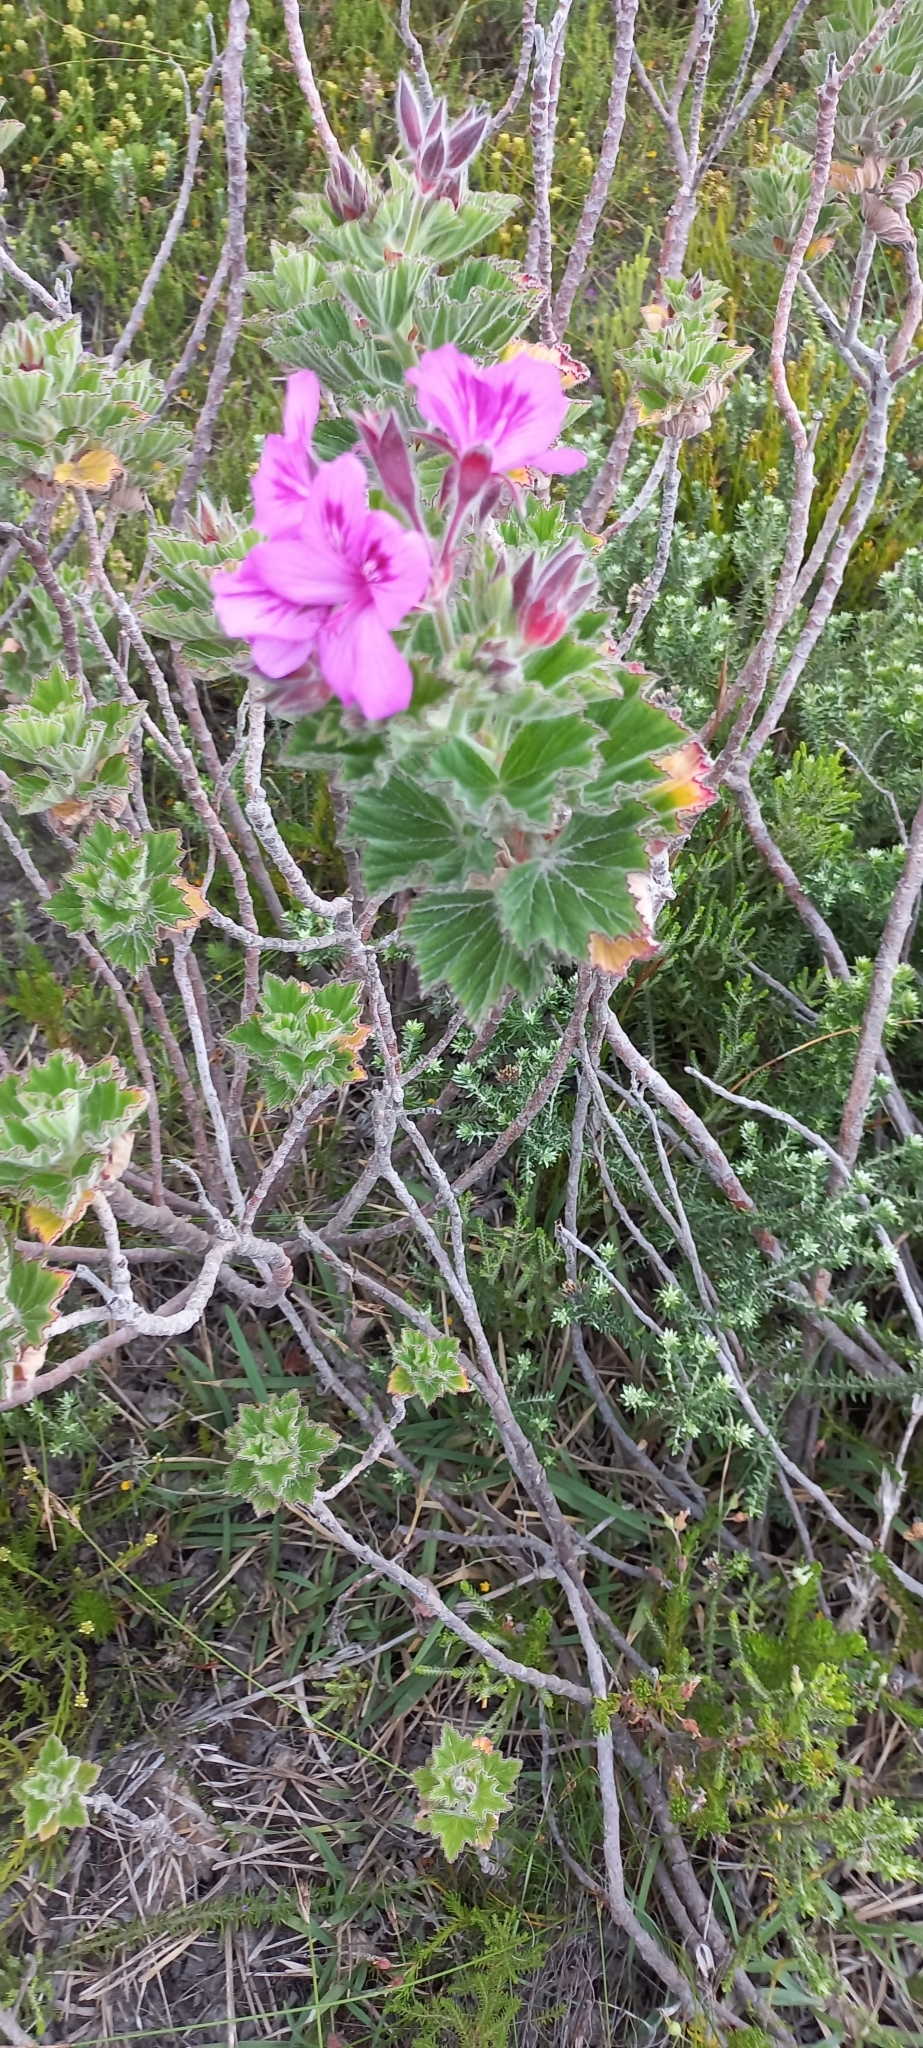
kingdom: Plantae
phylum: Tracheophyta
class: Magnoliopsida
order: Geraniales
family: Geraniaceae
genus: Pelargonium
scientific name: Pelargonium cucullatum
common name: Tree pelargonium
